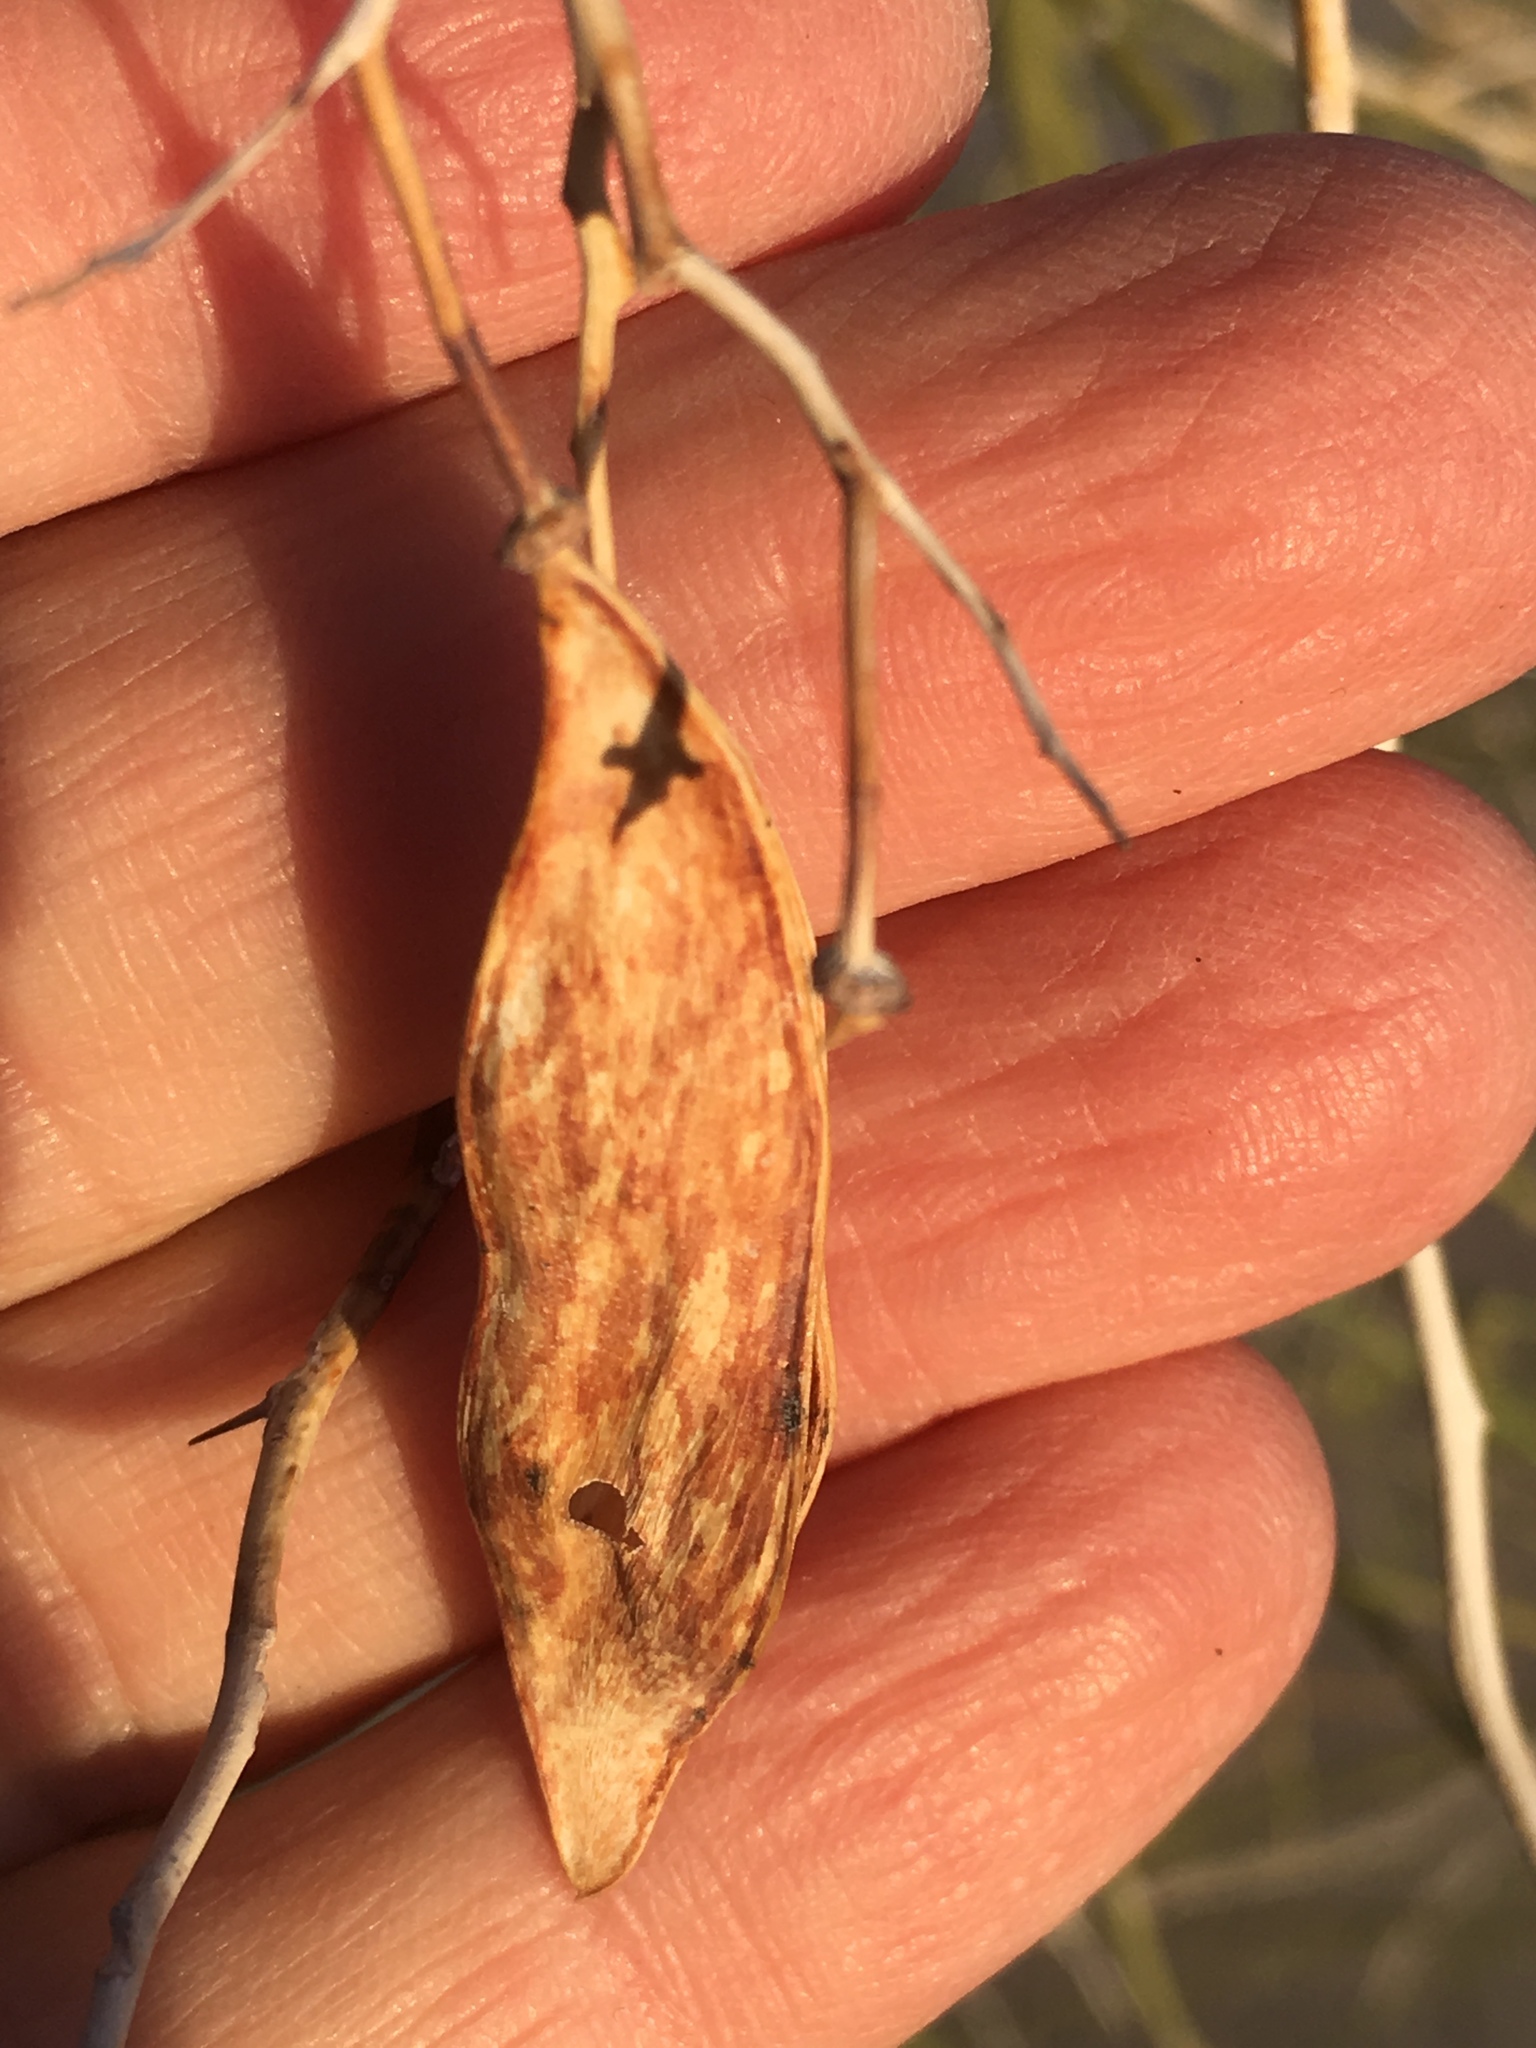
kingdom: Plantae
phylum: Tracheophyta
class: Magnoliopsida
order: Fabales
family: Fabaceae
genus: Parkinsonia
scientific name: Parkinsonia florida
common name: Blue paloverde
